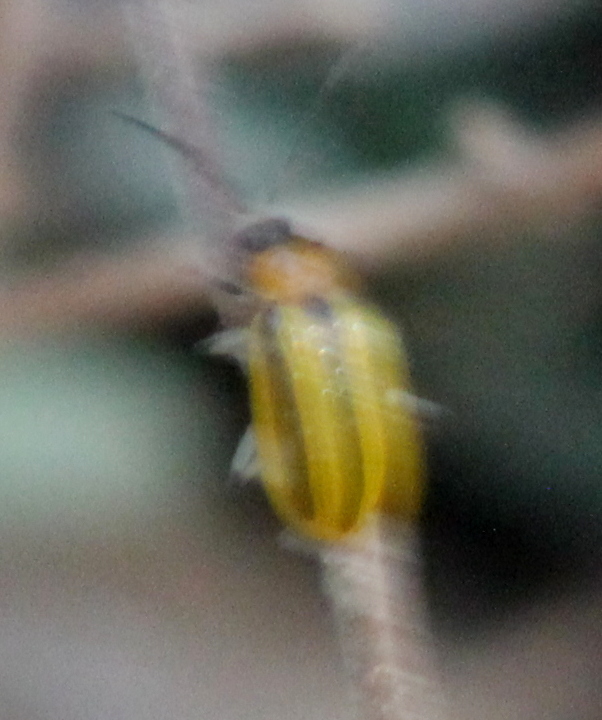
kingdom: Animalia
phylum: Arthropoda
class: Insecta
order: Coleoptera
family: Chrysomelidae
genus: Acalymma
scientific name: Acalymma vittatum
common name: Striped cucumber beetle
